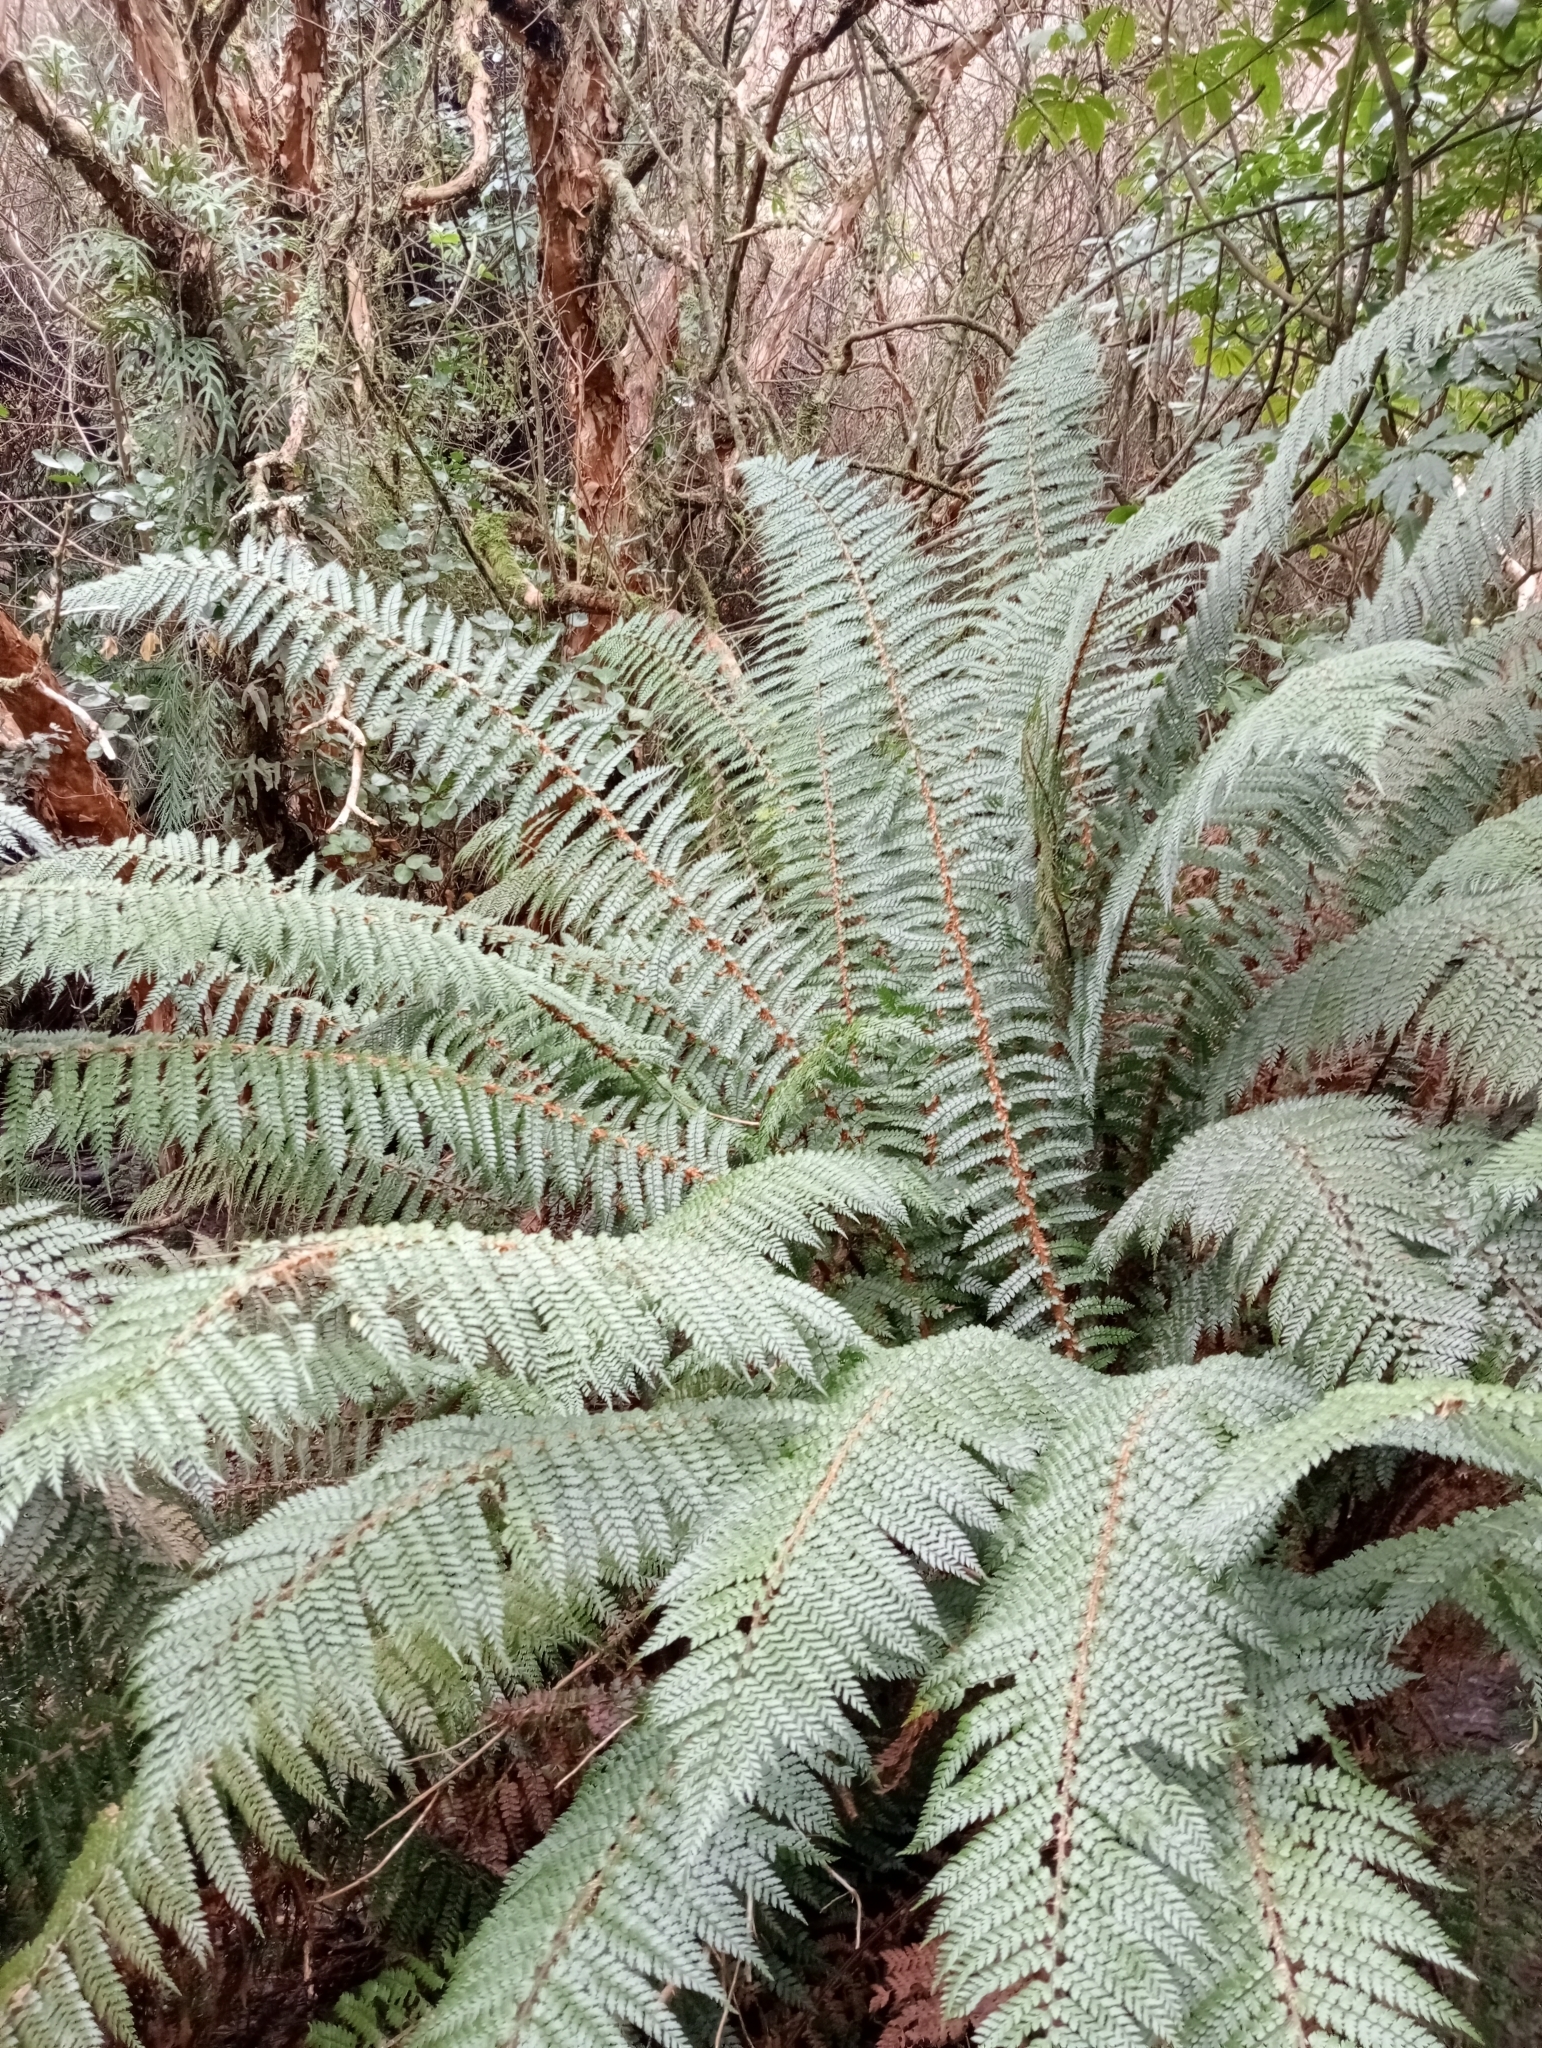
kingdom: Plantae
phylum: Tracheophyta
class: Polypodiopsida
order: Polypodiales
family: Dryopteridaceae
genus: Polystichum
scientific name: Polystichum vestitum
